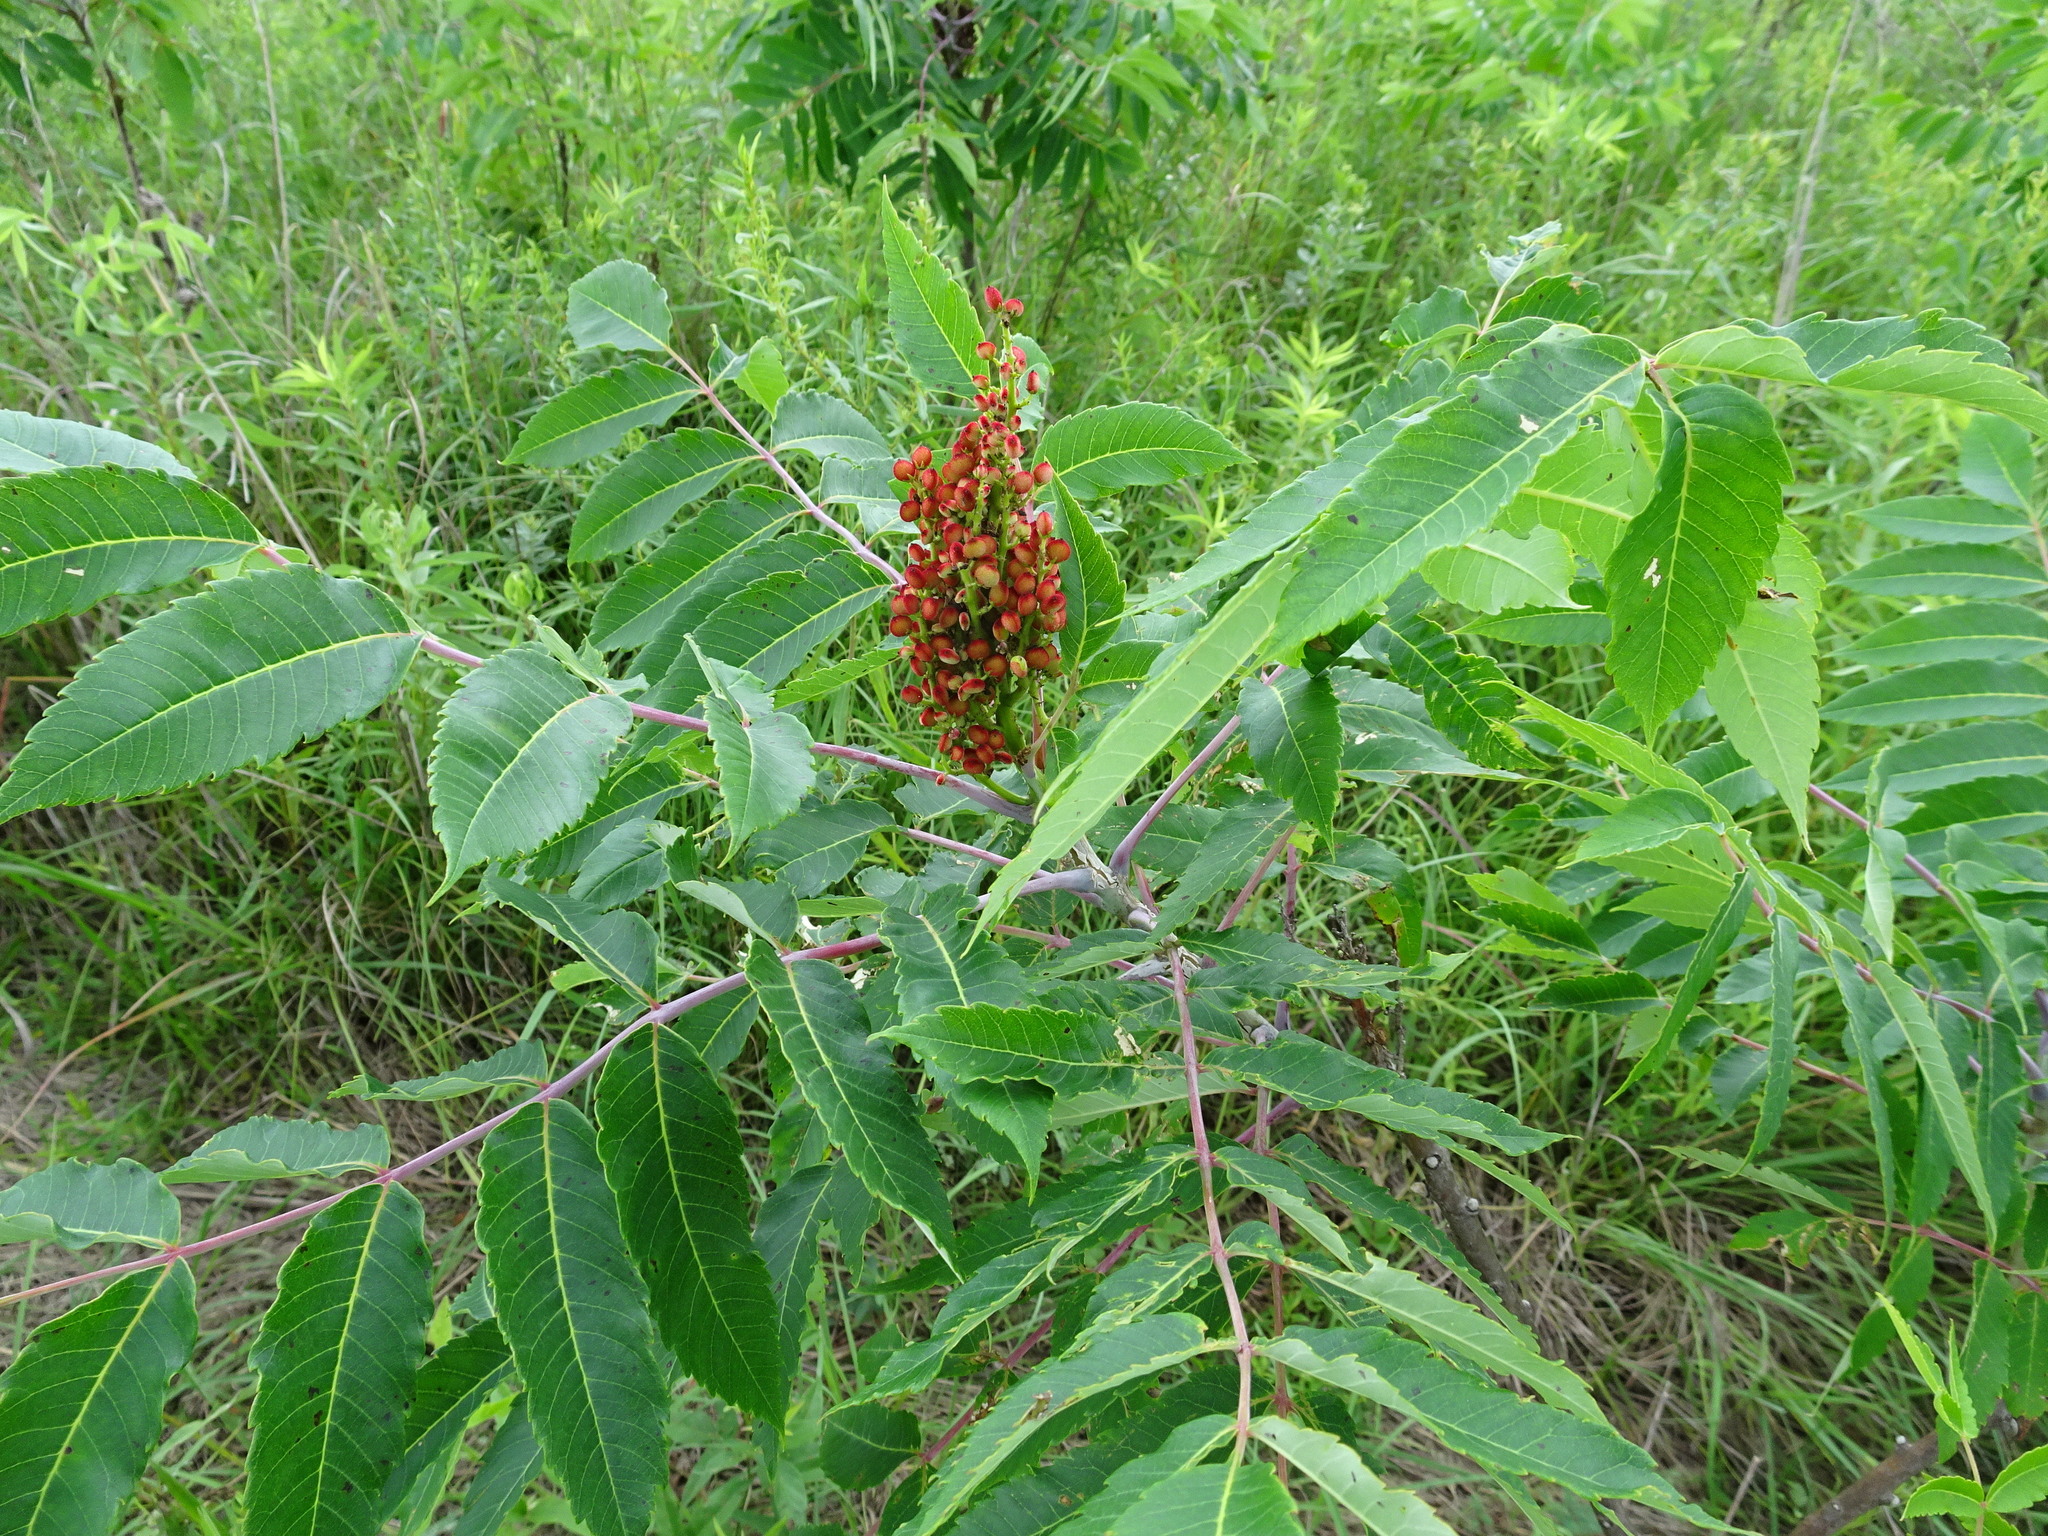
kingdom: Plantae
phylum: Tracheophyta
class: Magnoliopsida
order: Sapindales
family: Anacardiaceae
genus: Rhus
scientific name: Rhus glabra
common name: Scarlet sumac
